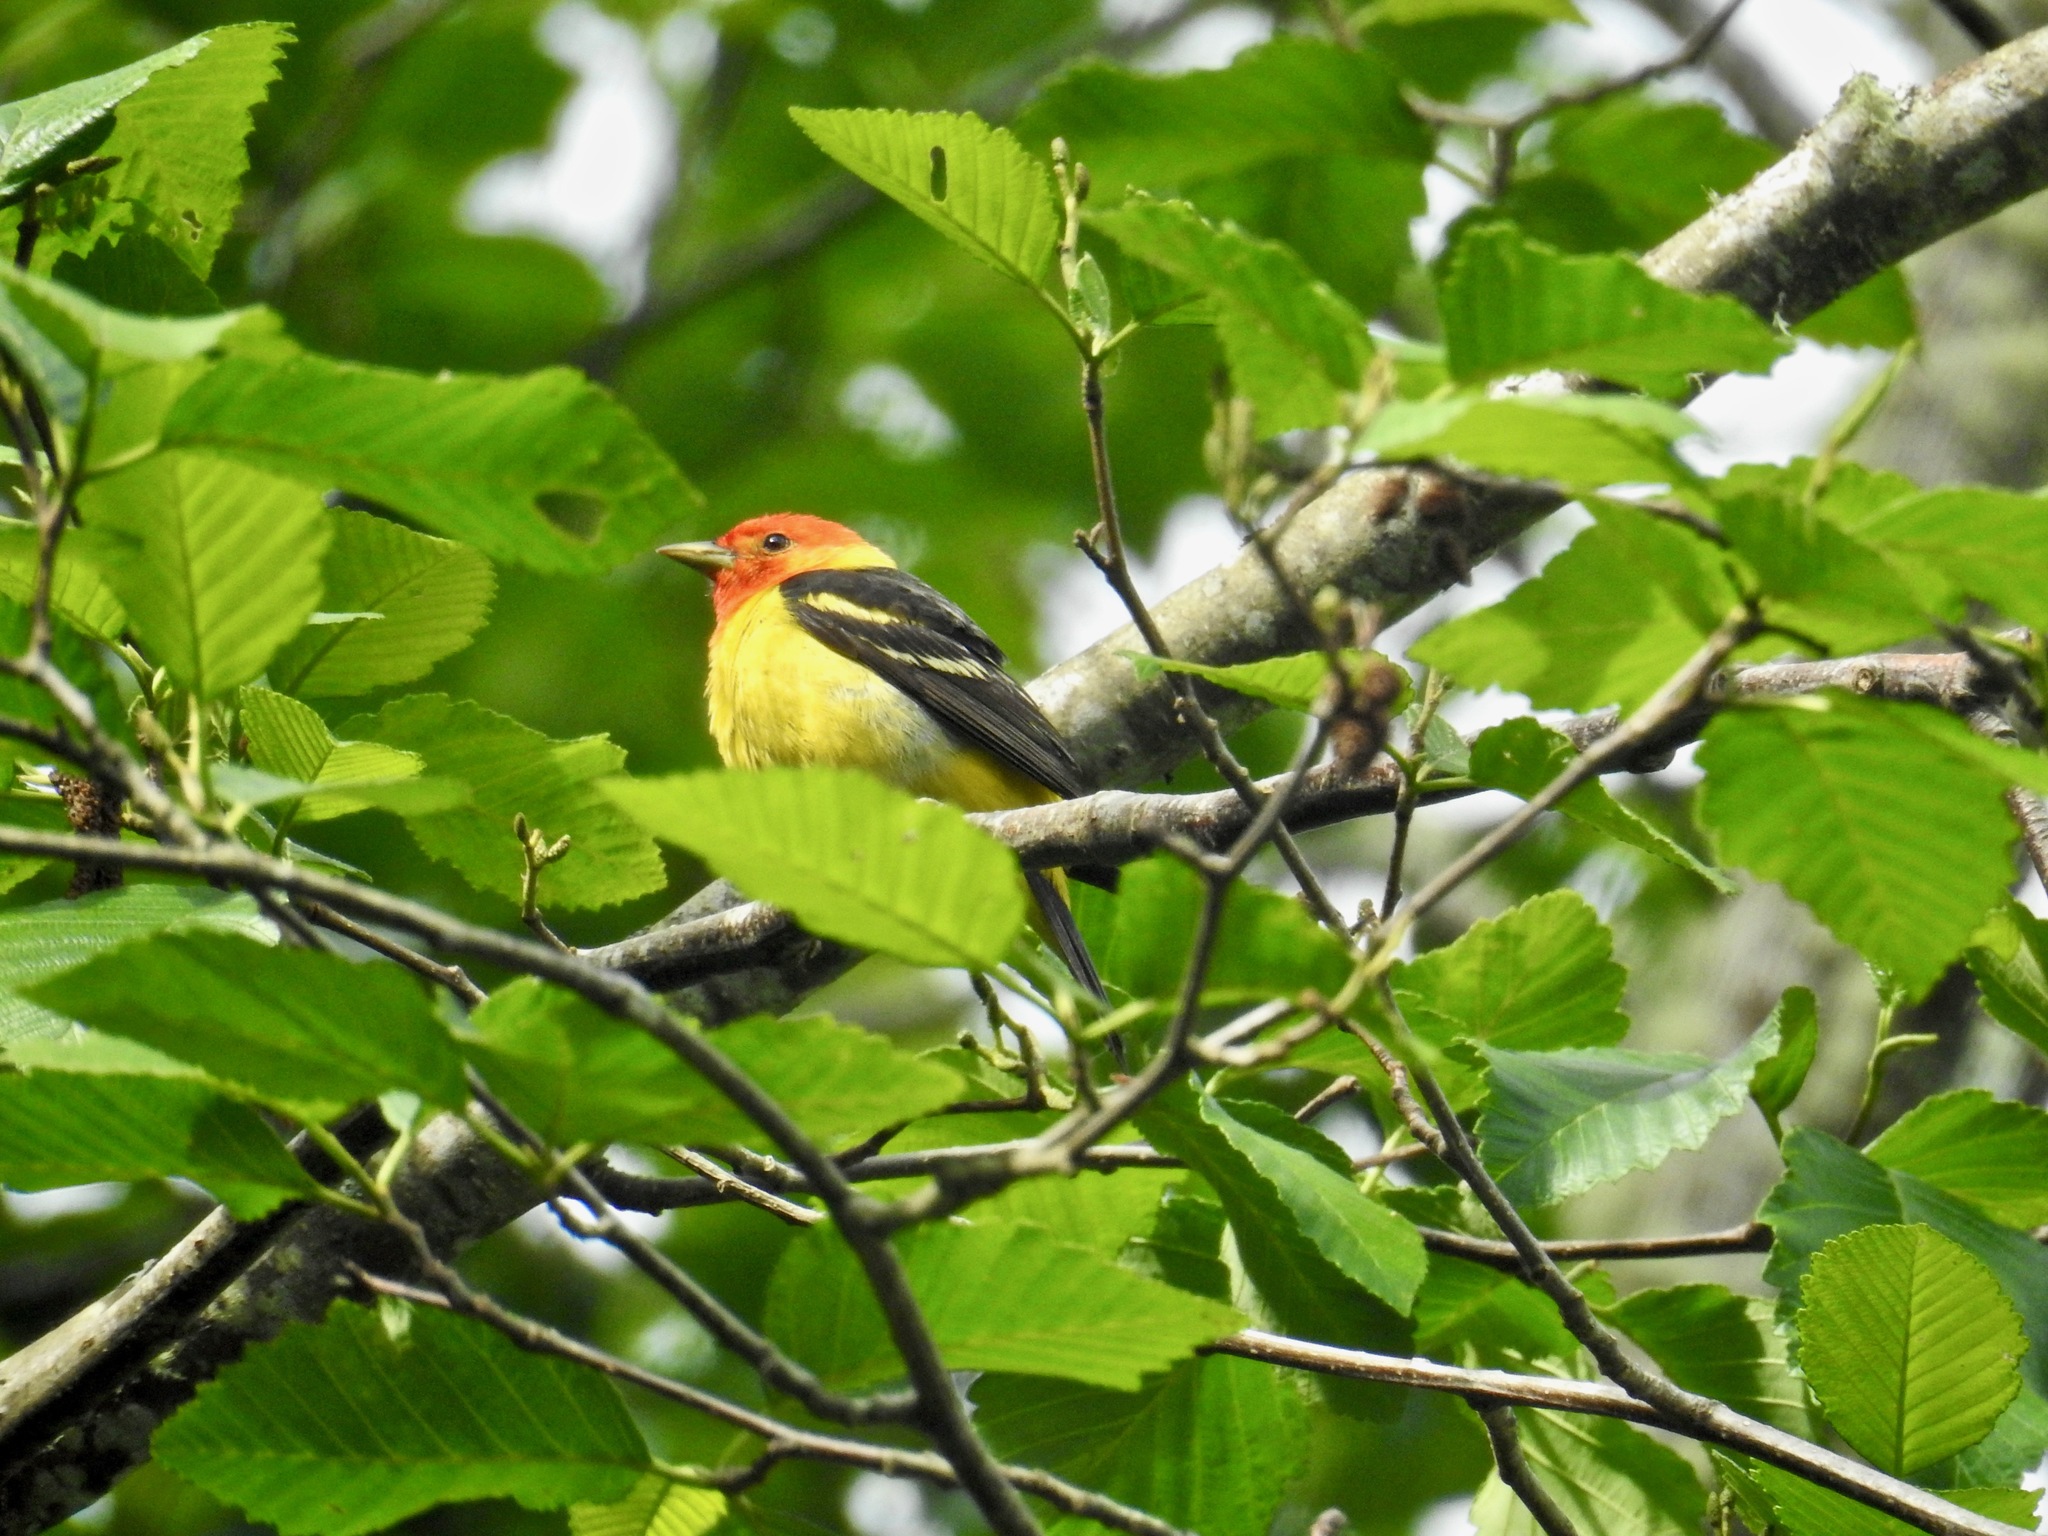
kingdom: Animalia
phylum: Chordata
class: Aves
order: Passeriformes
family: Cardinalidae
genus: Piranga
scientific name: Piranga ludoviciana
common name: Western tanager
